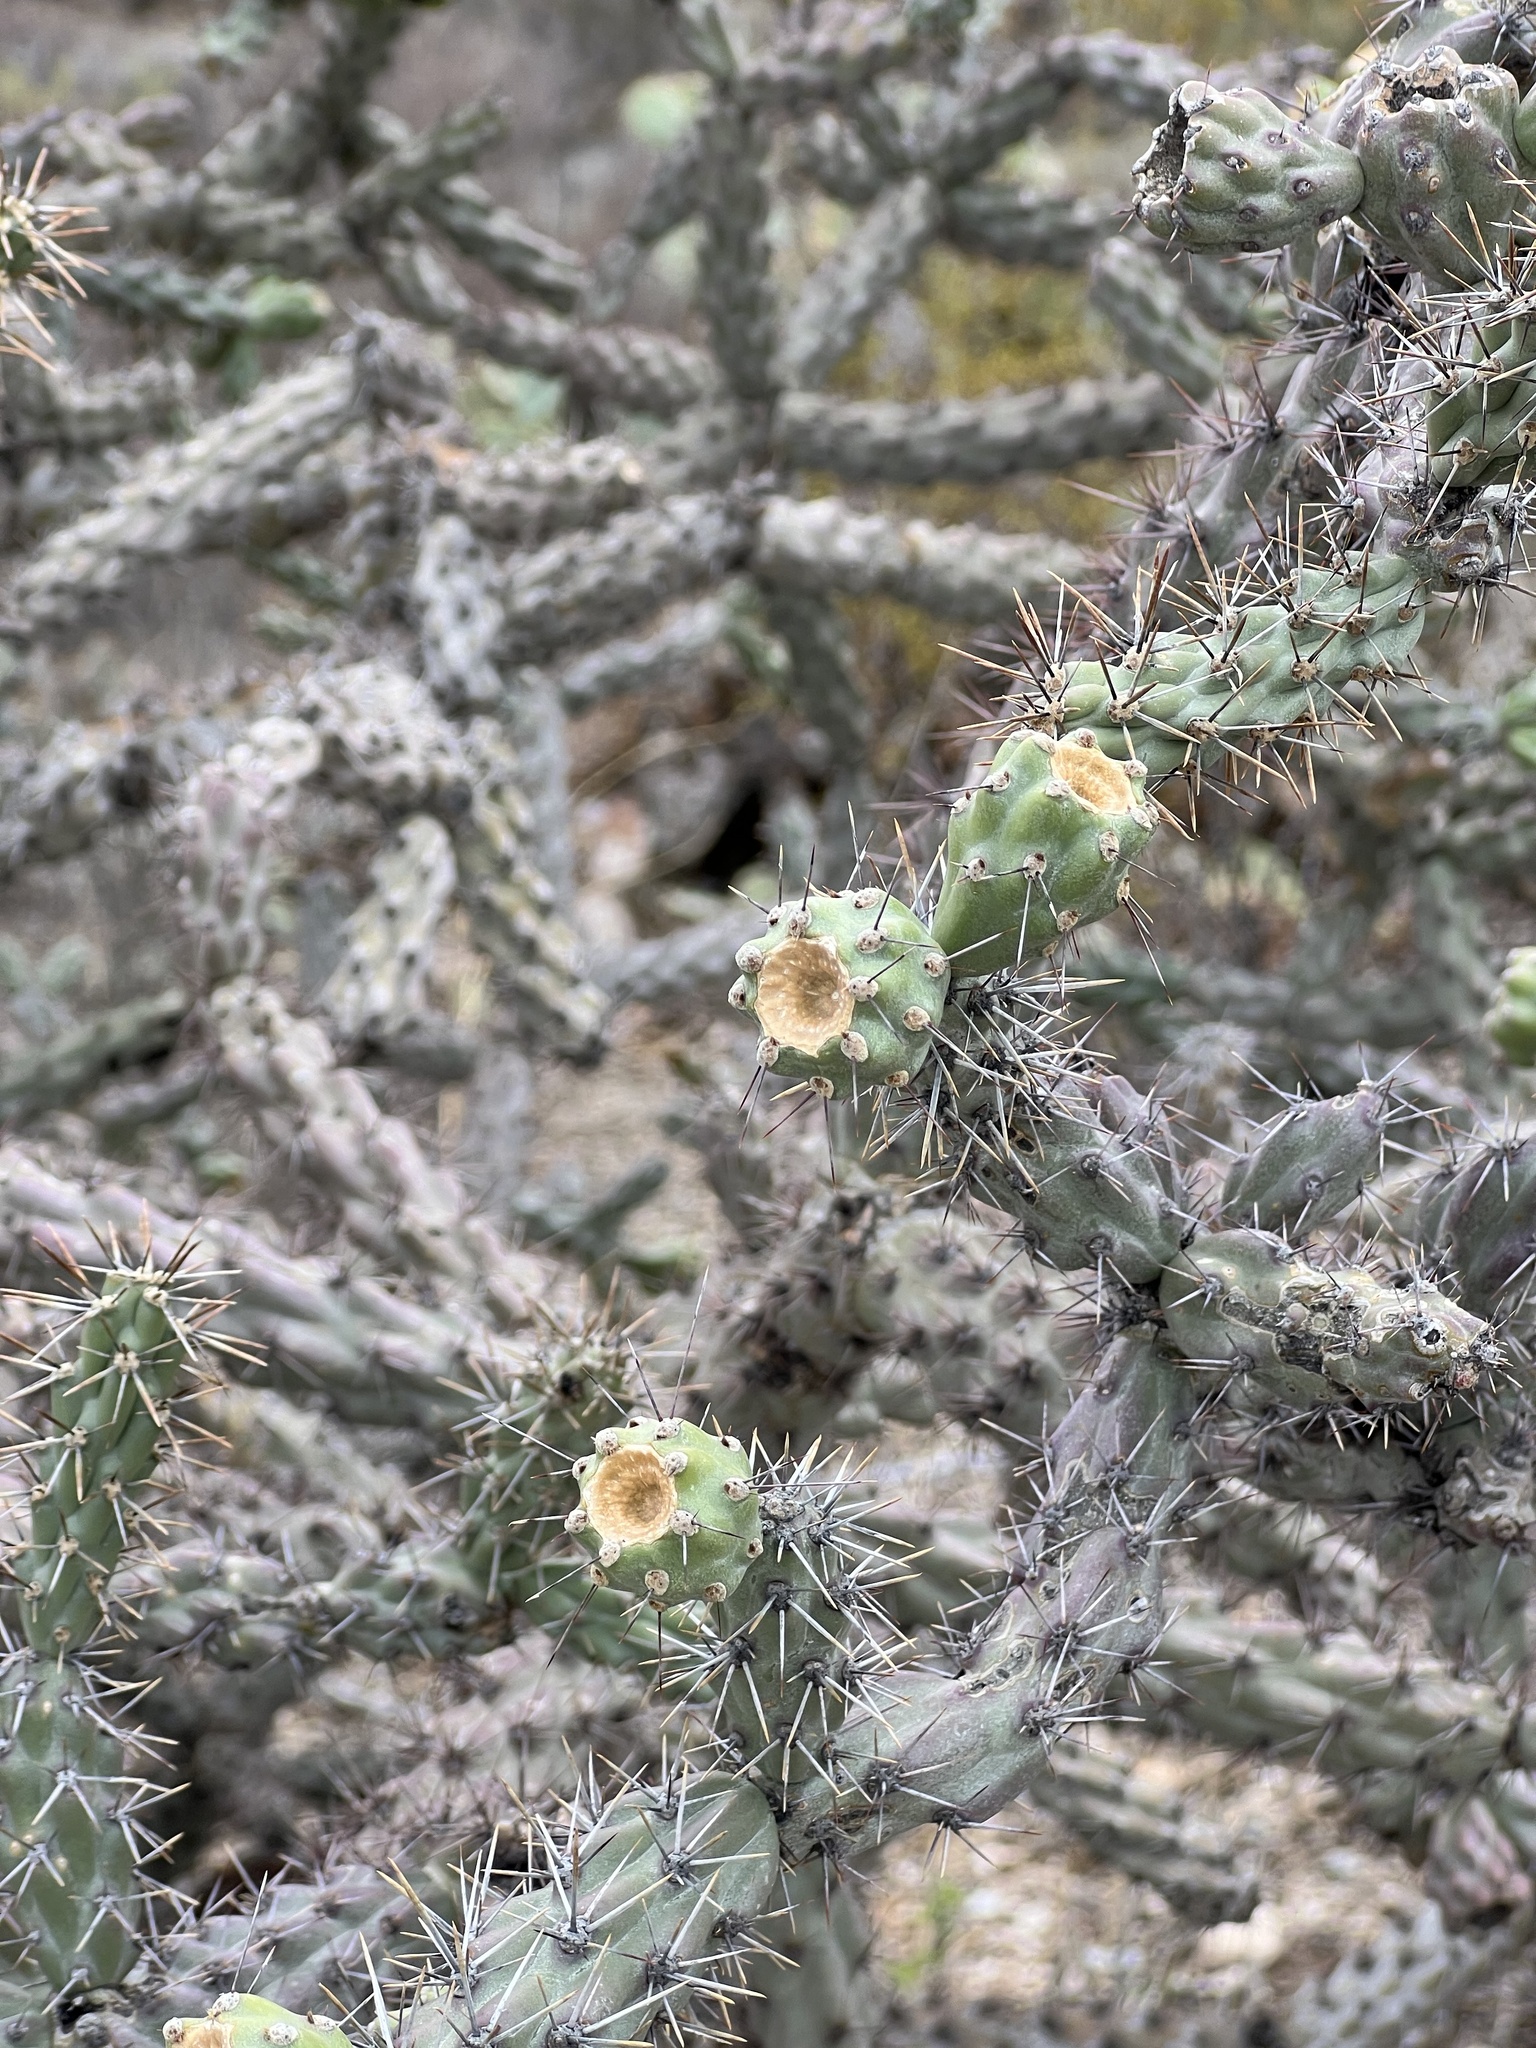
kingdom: Plantae
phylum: Tracheophyta
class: Magnoliopsida
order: Caryophyllales
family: Cactaceae
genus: Cylindropuntia
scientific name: Cylindropuntia thurberi
